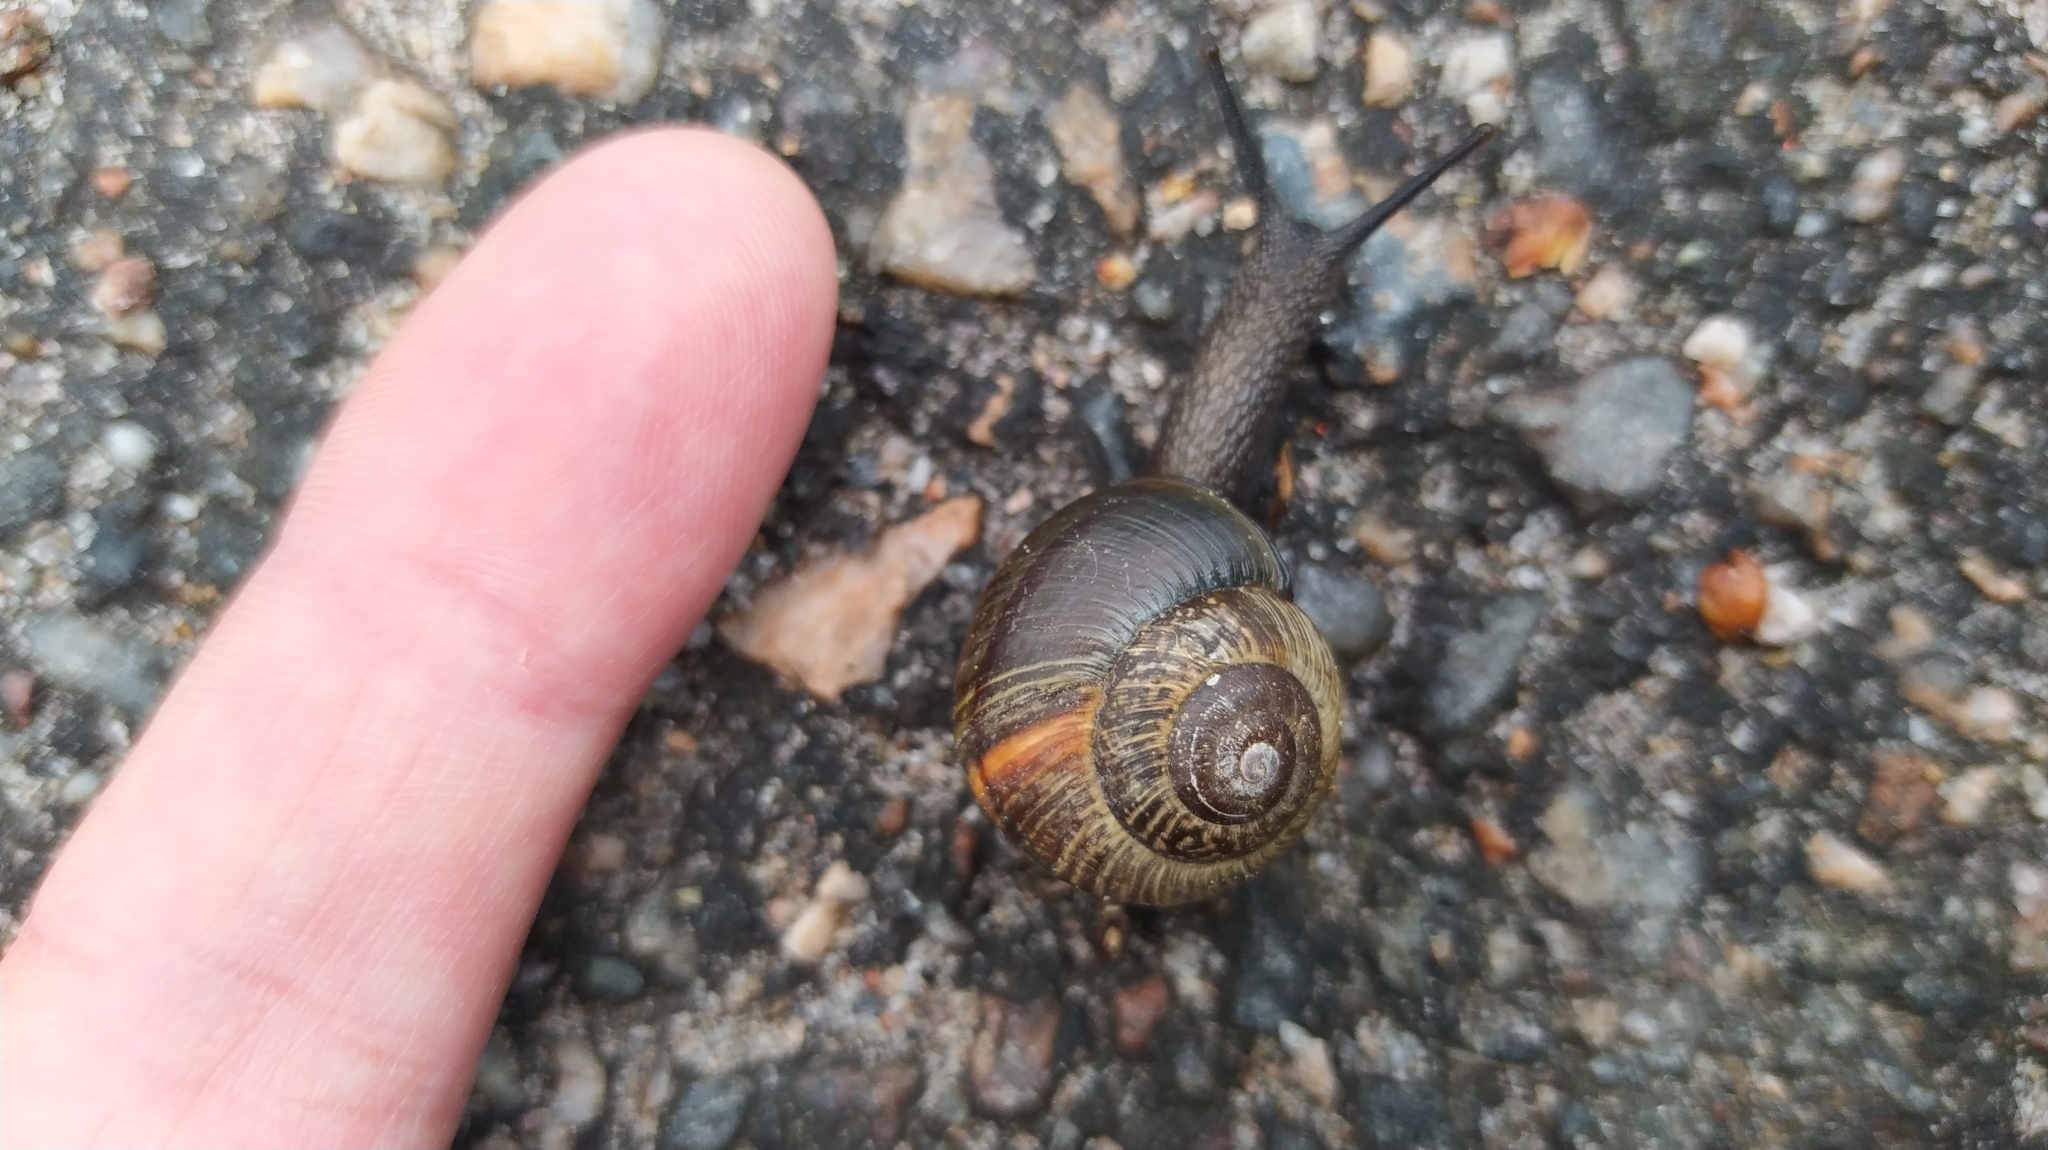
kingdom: Animalia
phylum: Mollusca
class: Gastropoda
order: Stylommatophora
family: Helicidae
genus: Arianta
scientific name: Arianta arbustorum
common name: Copse snail
